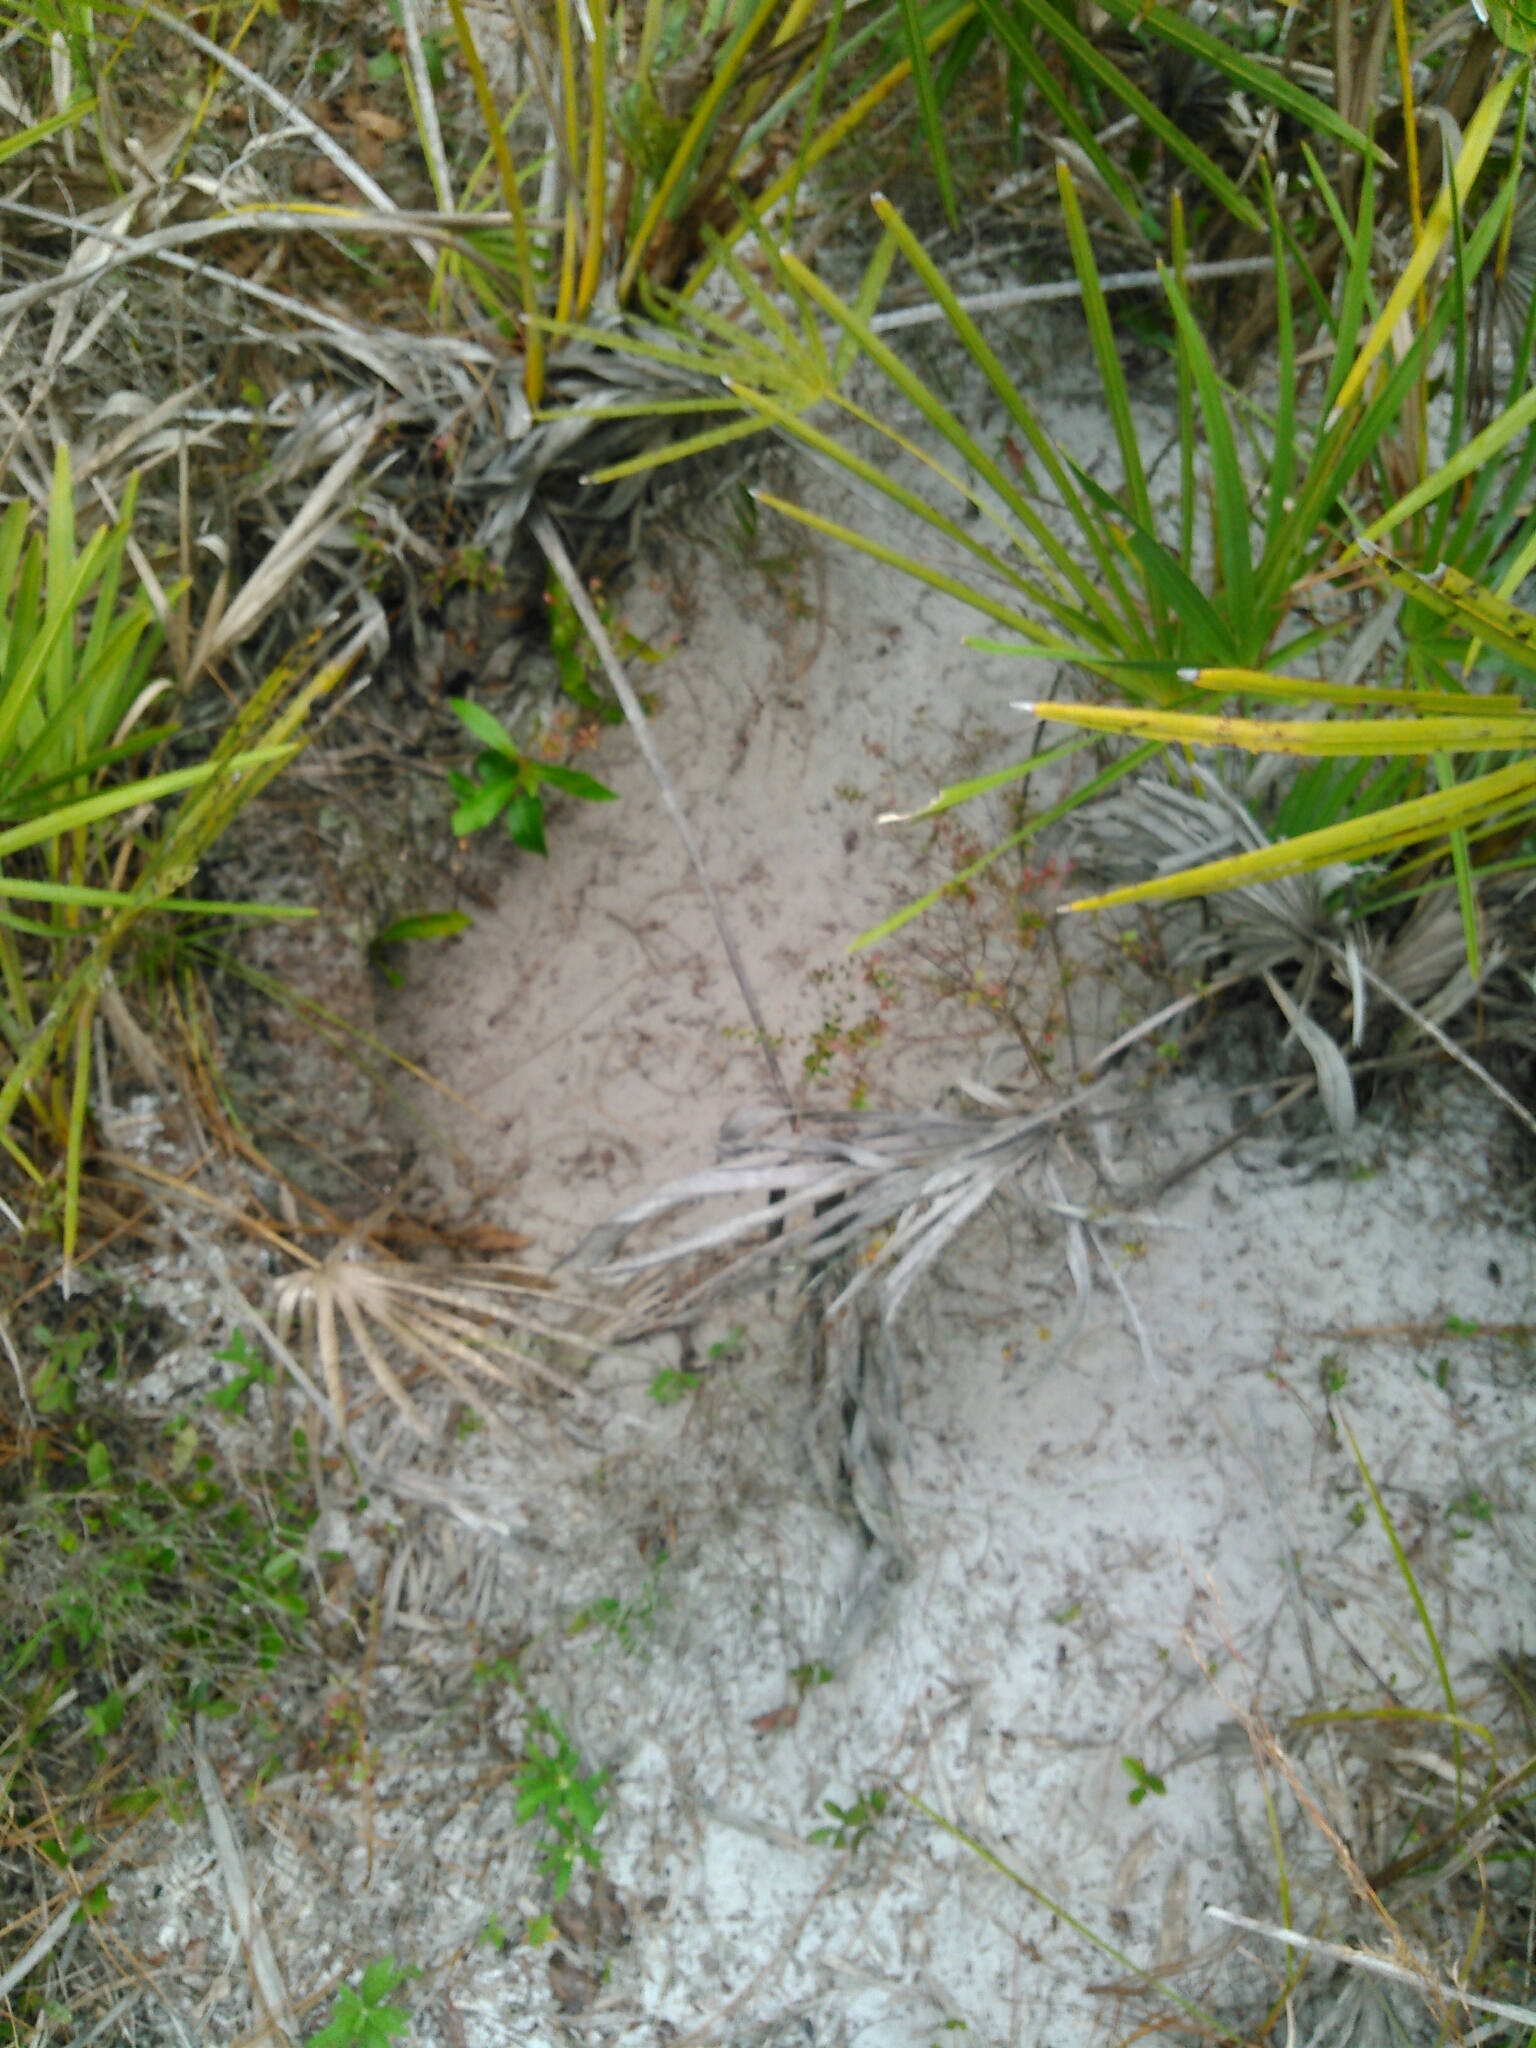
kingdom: Animalia
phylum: Chordata
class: Testudines
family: Testudinidae
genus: Gopherus
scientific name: Gopherus polyphemus
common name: Florida gopher tortoise
